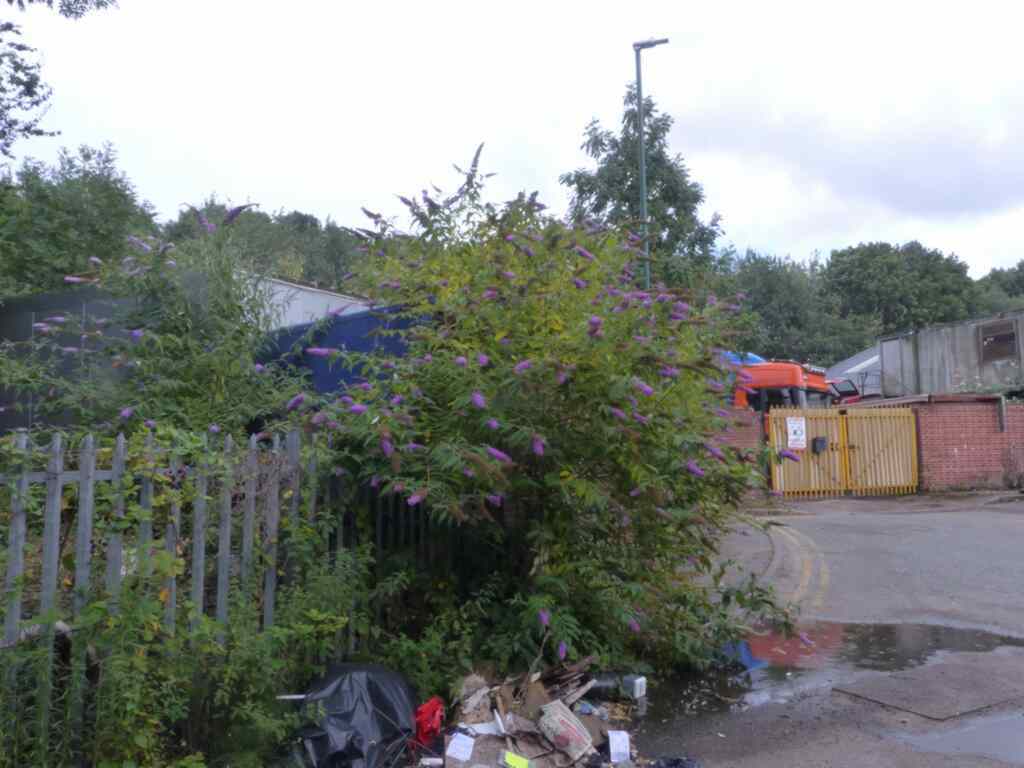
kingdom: Plantae
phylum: Tracheophyta
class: Magnoliopsida
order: Lamiales
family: Scrophulariaceae
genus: Buddleja
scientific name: Buddleja davidii
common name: Butterfly-bush
